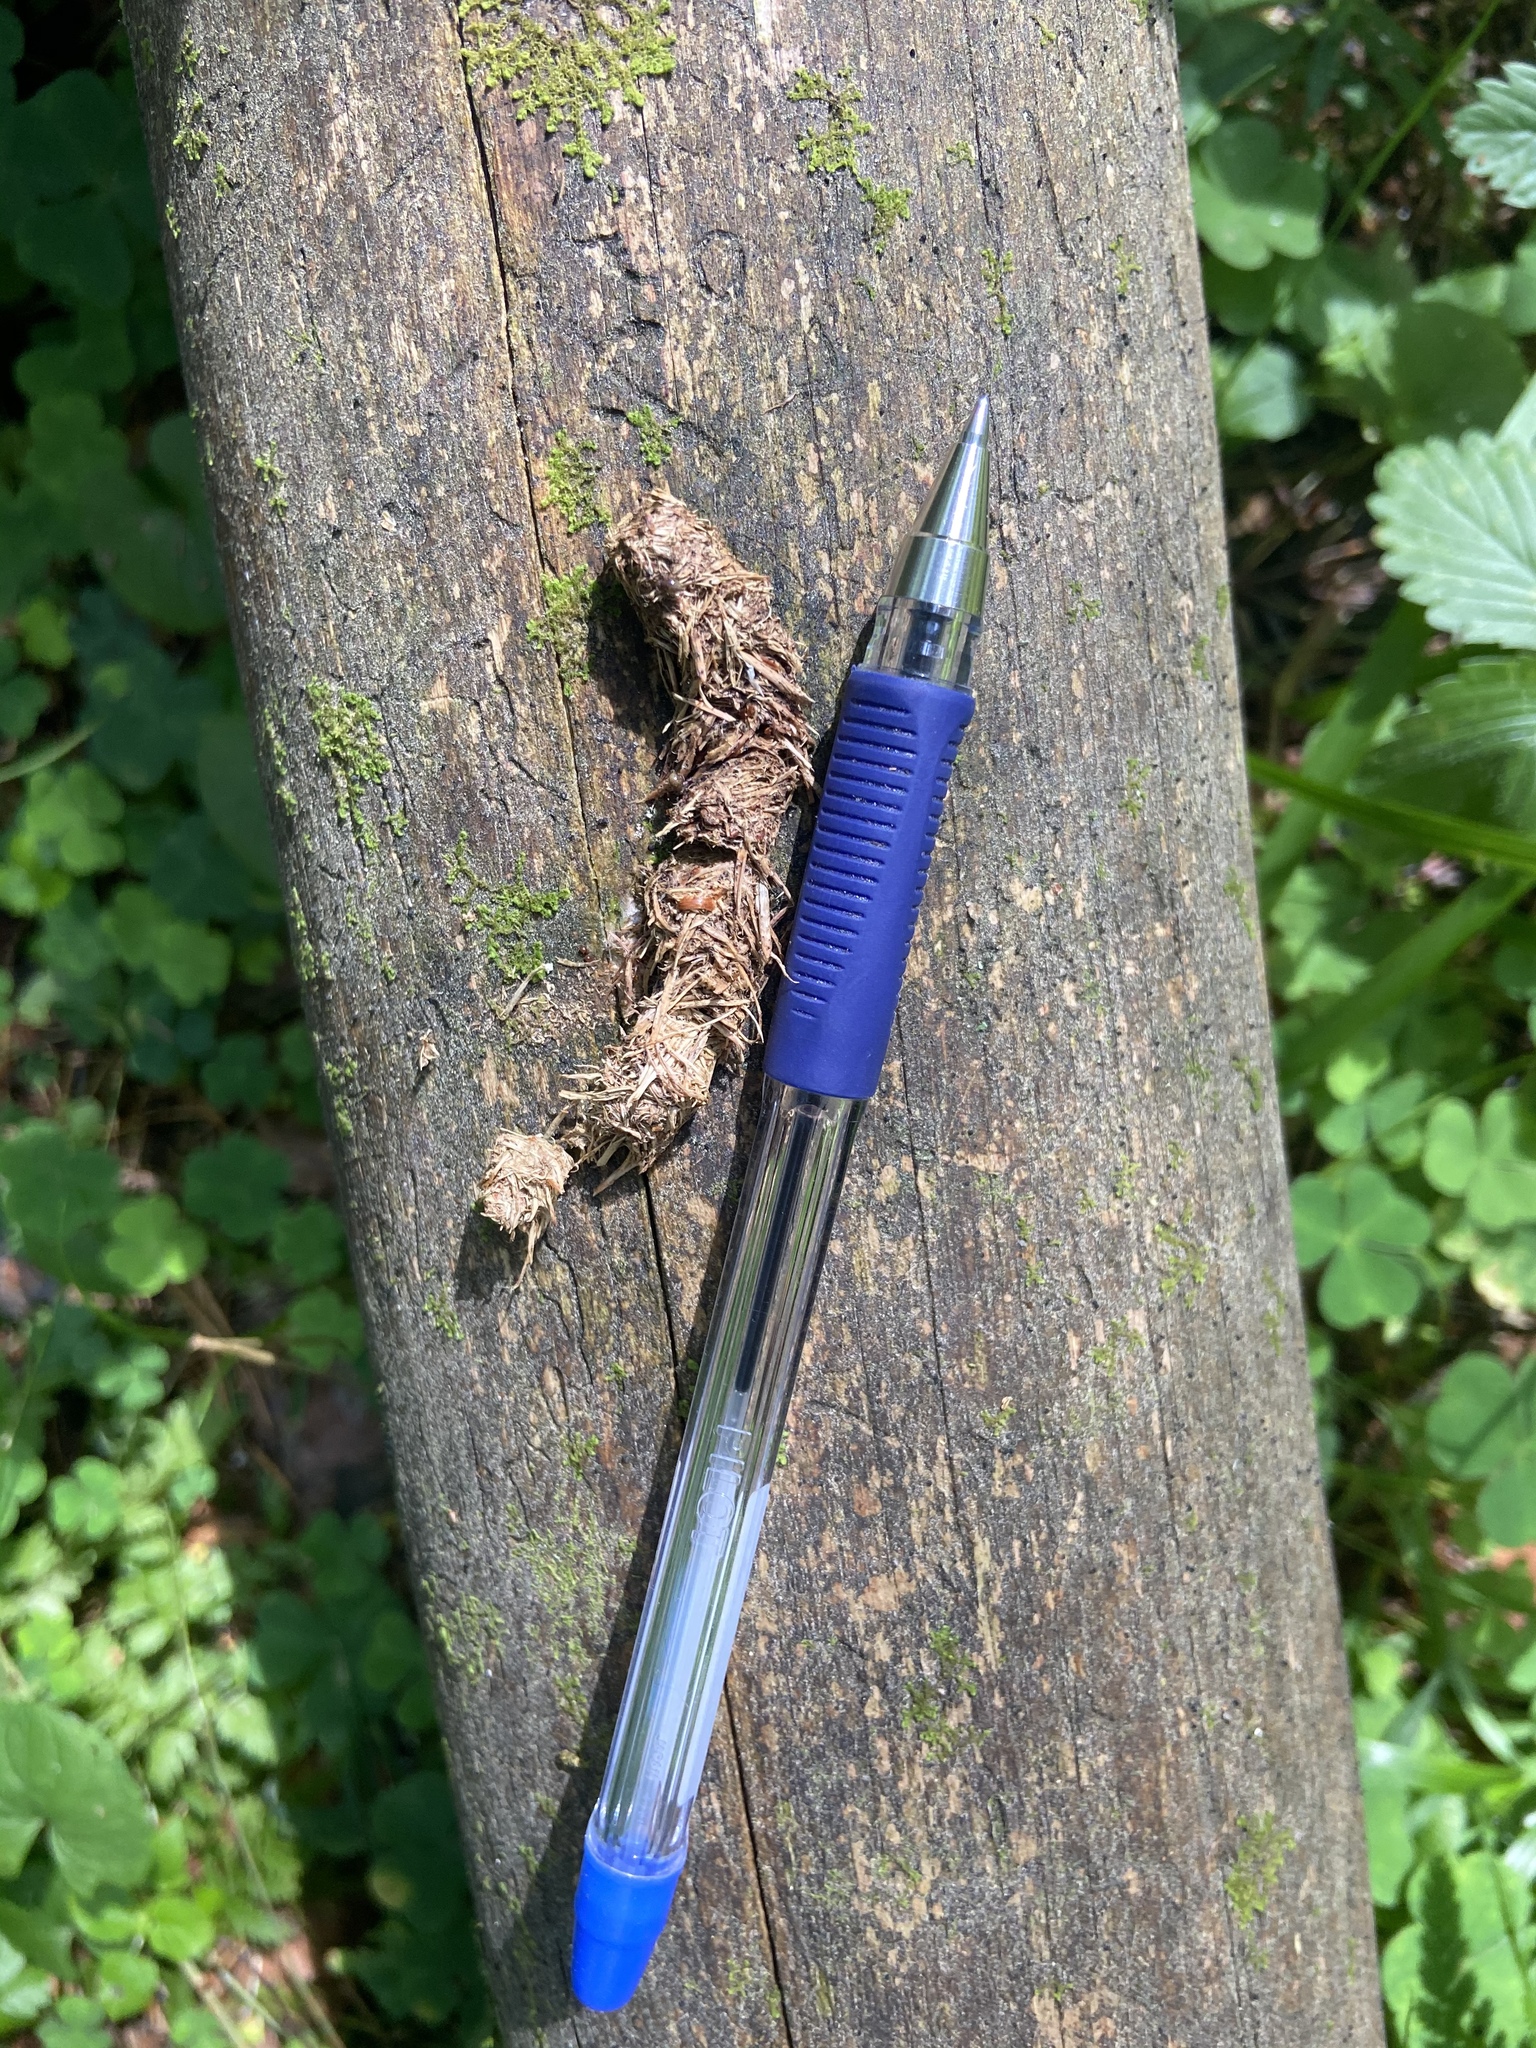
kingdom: Animalia
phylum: Chordata
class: Aves
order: Galliformes
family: Phasianidae
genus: Tetrao
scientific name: Tetrao urogallus
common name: Western capercaillie
